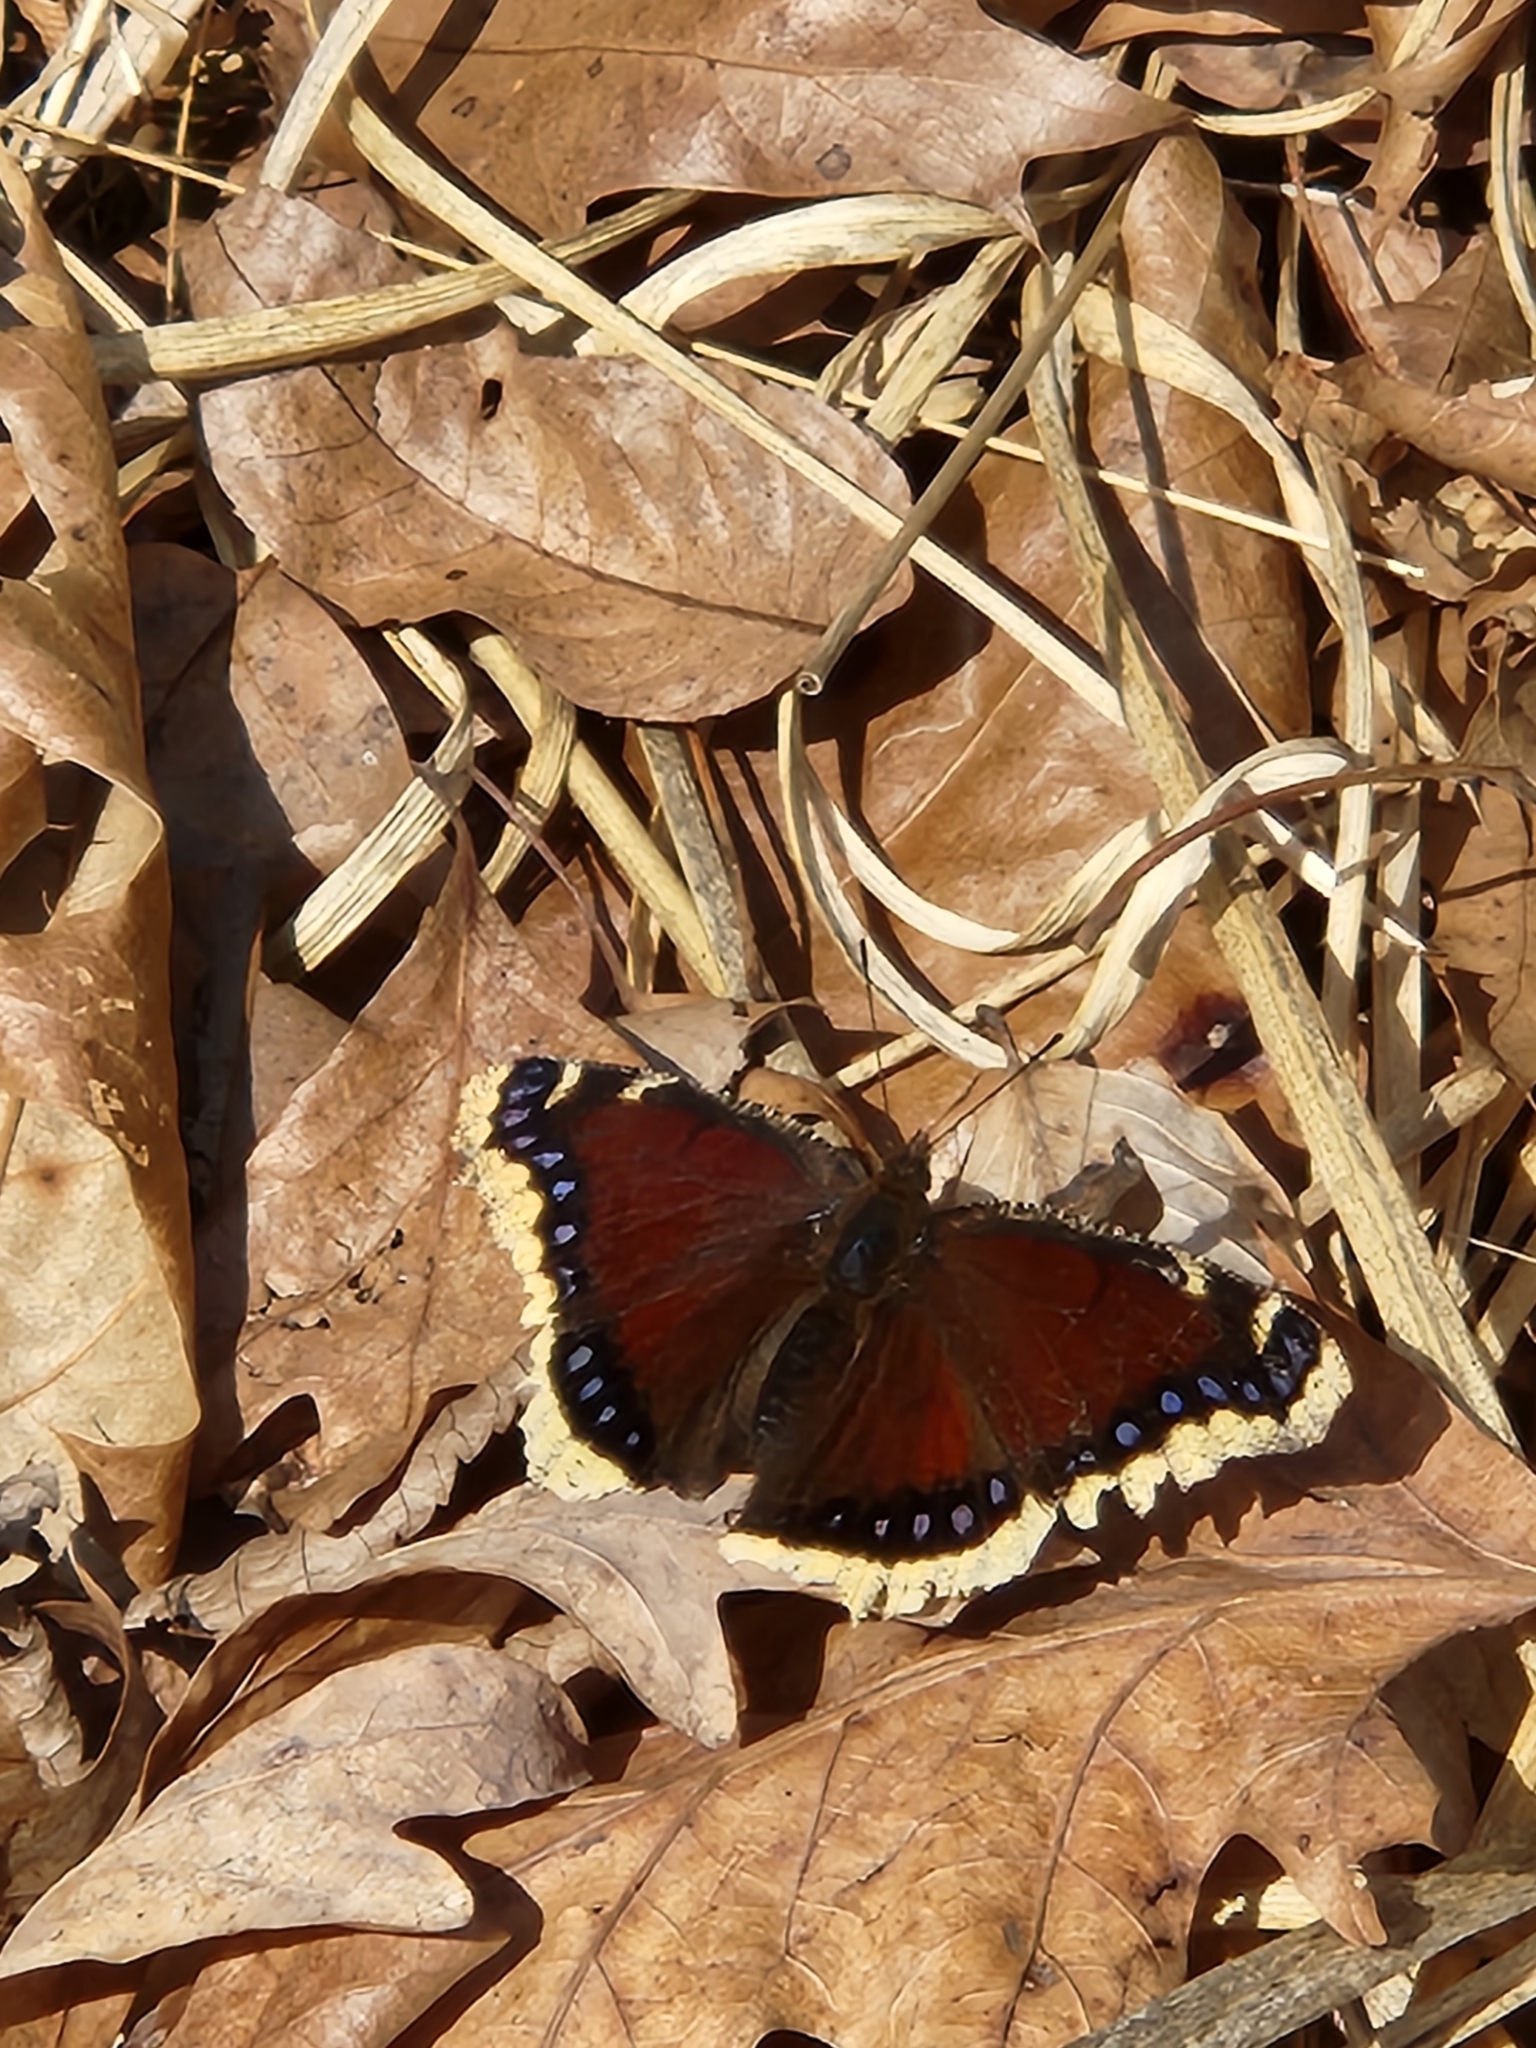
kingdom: Animalia
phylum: Arthropoda
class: Insecta
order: Lepidoptera
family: Nymphalidae
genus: Nymphalis
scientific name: Nymphalis antiopa
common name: Camberwell beauty
